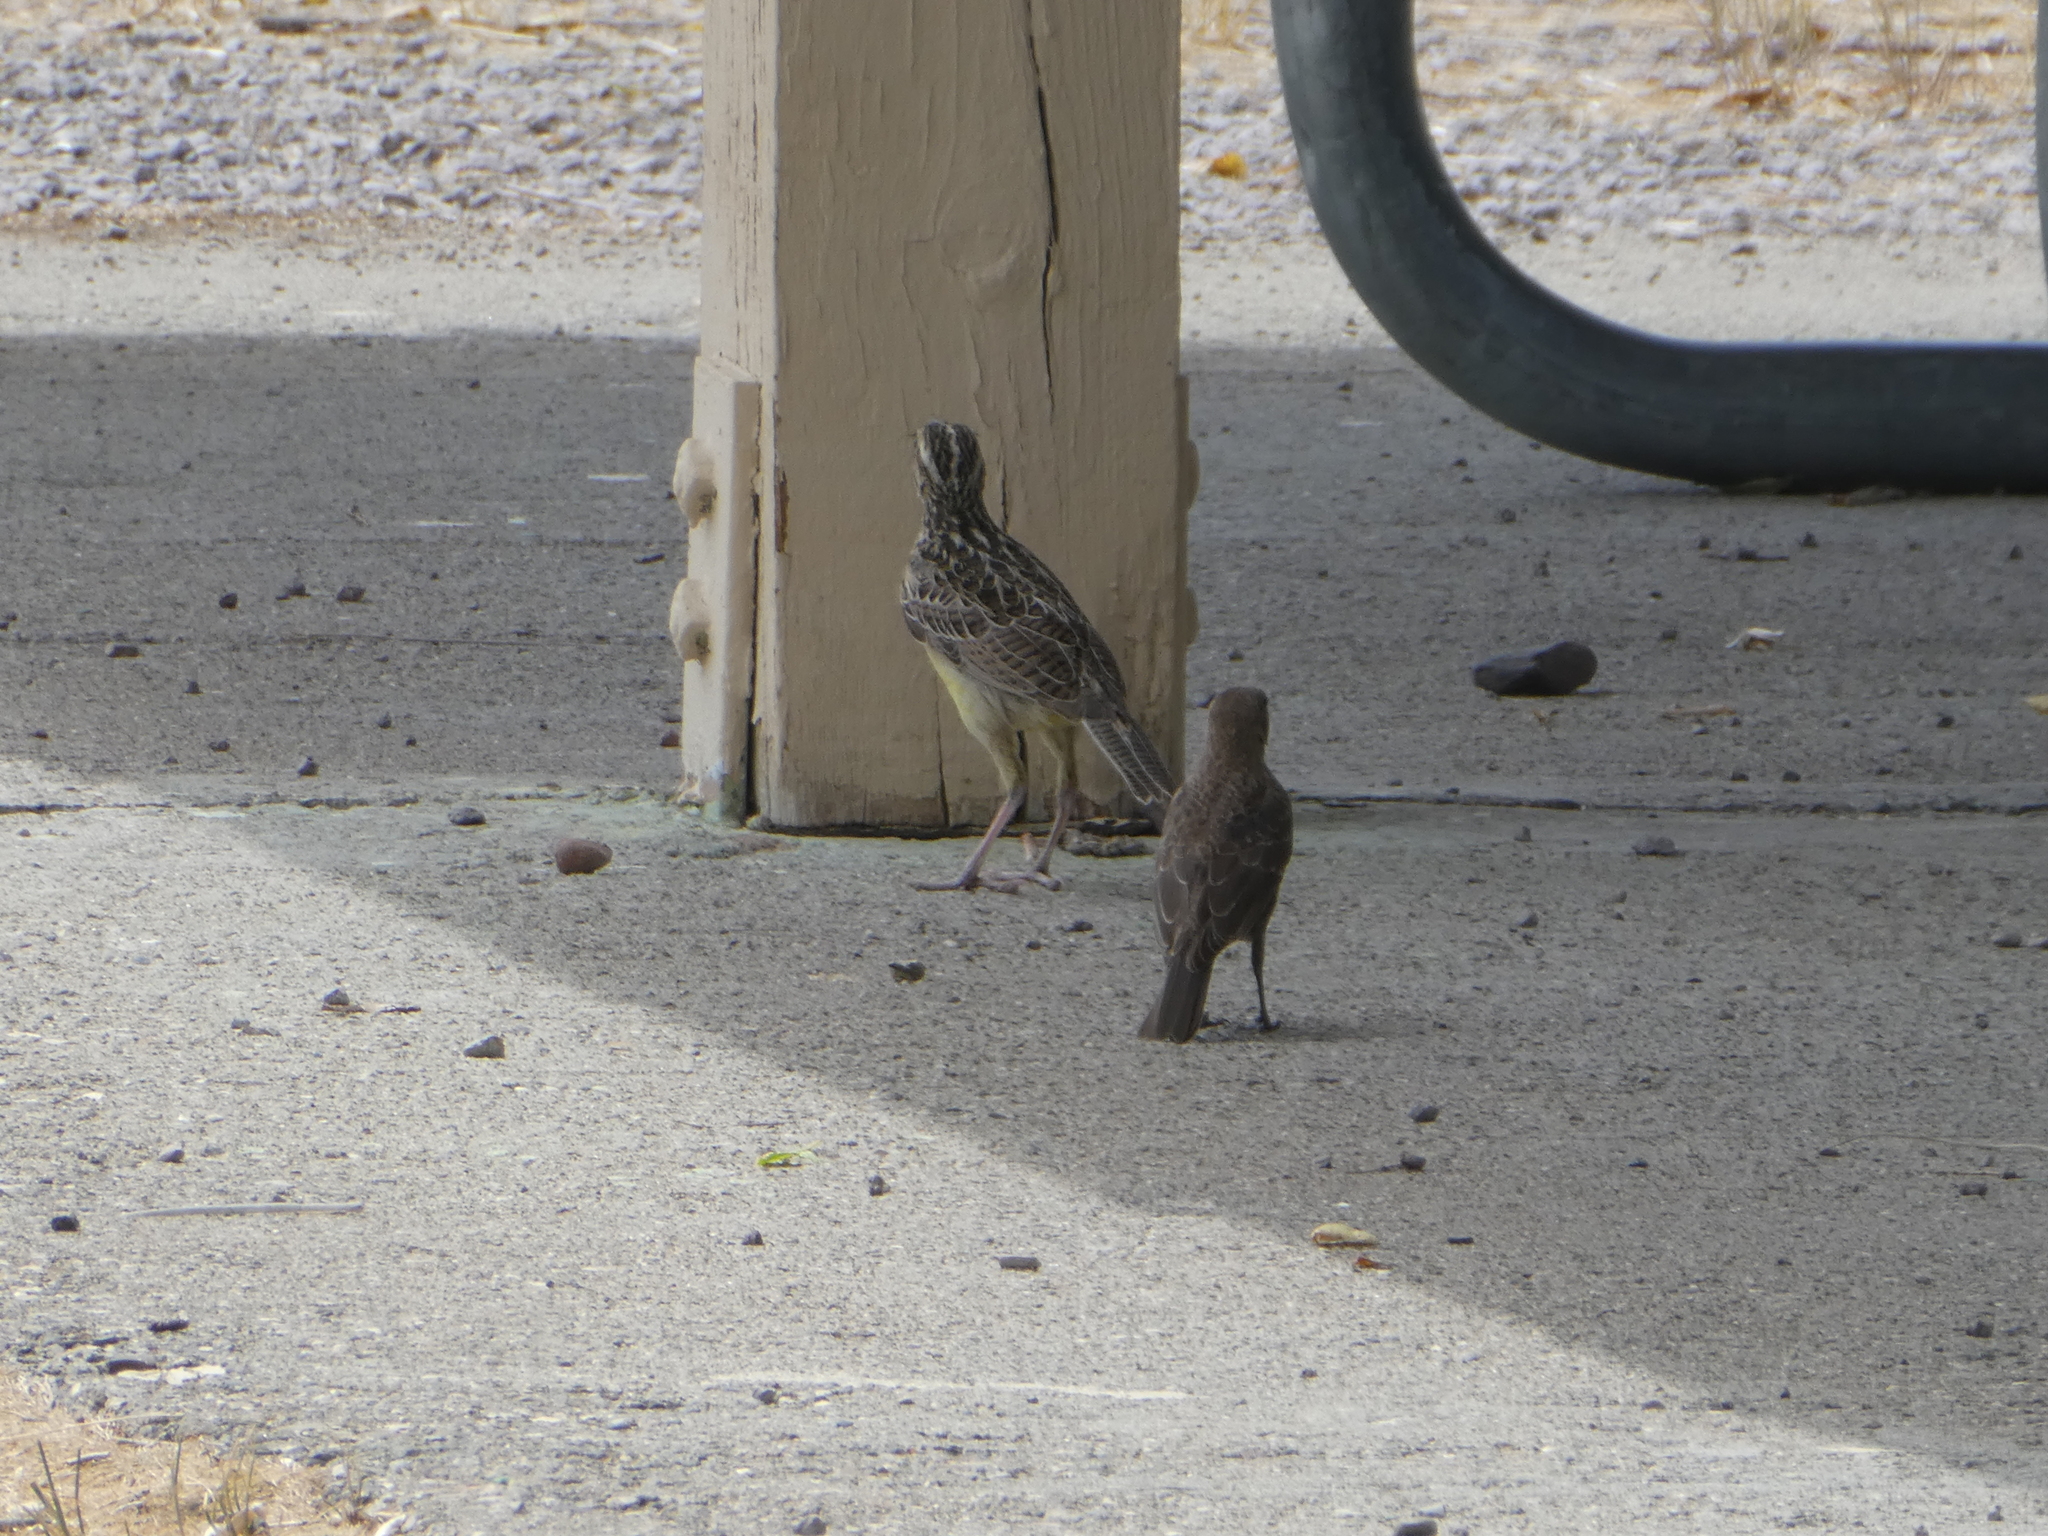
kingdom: Animalia
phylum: Chordata
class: Aves
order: Passeriformes
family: Icteridae
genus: Sturnella
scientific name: Sturnella neglecta
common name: Western meadowlark
